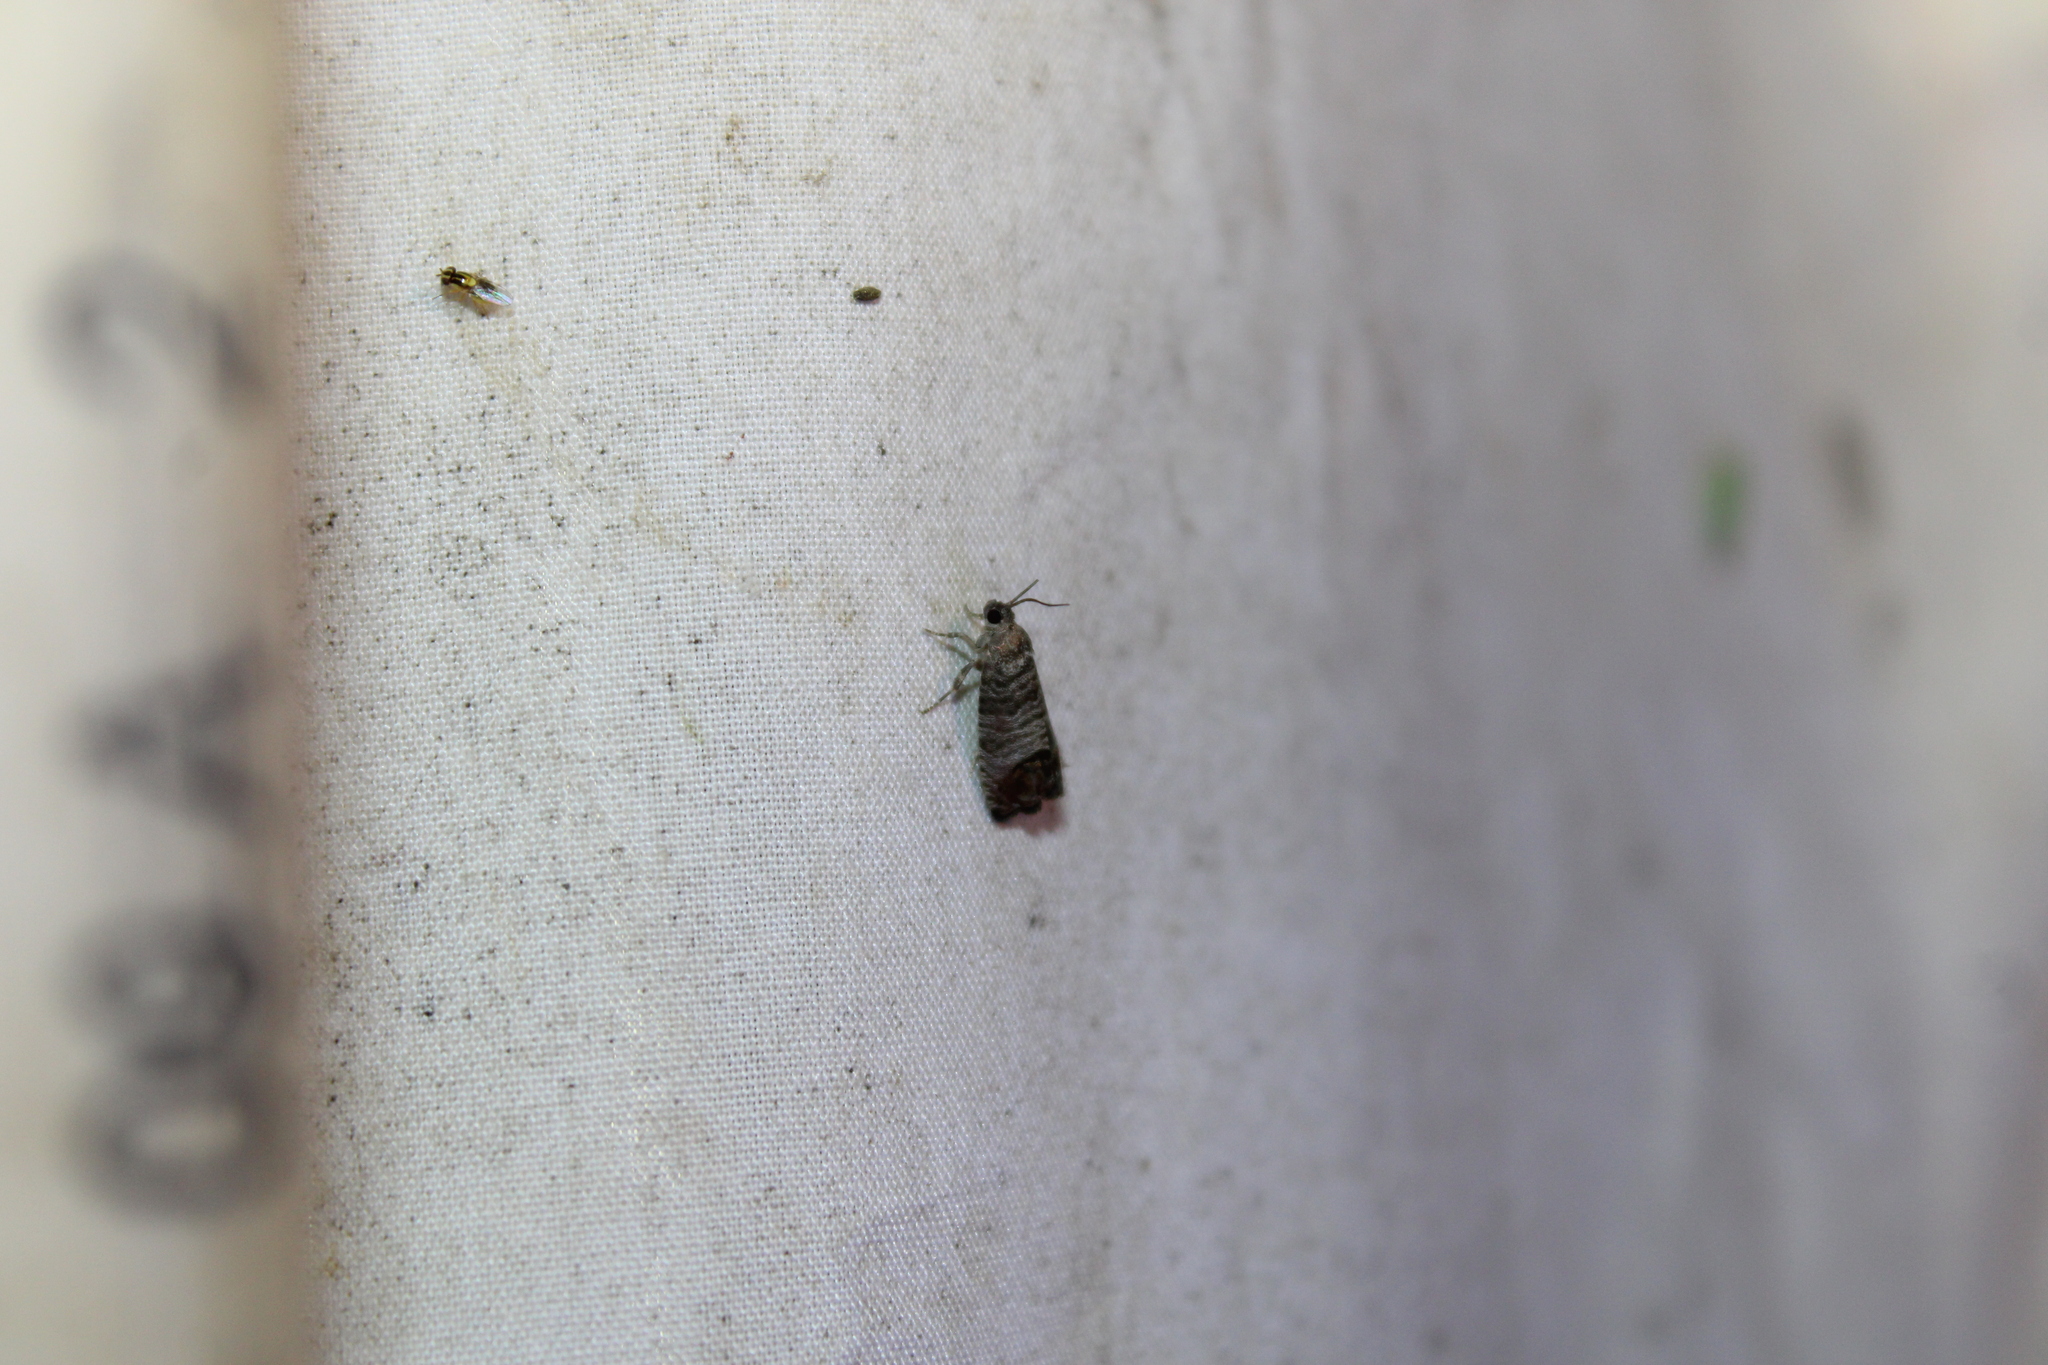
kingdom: Animalia
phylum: Arthropoda
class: Insecta
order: Lepidoptera
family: Tortricidae
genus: Cydia
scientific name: Cydia pomonella
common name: Codling moth
